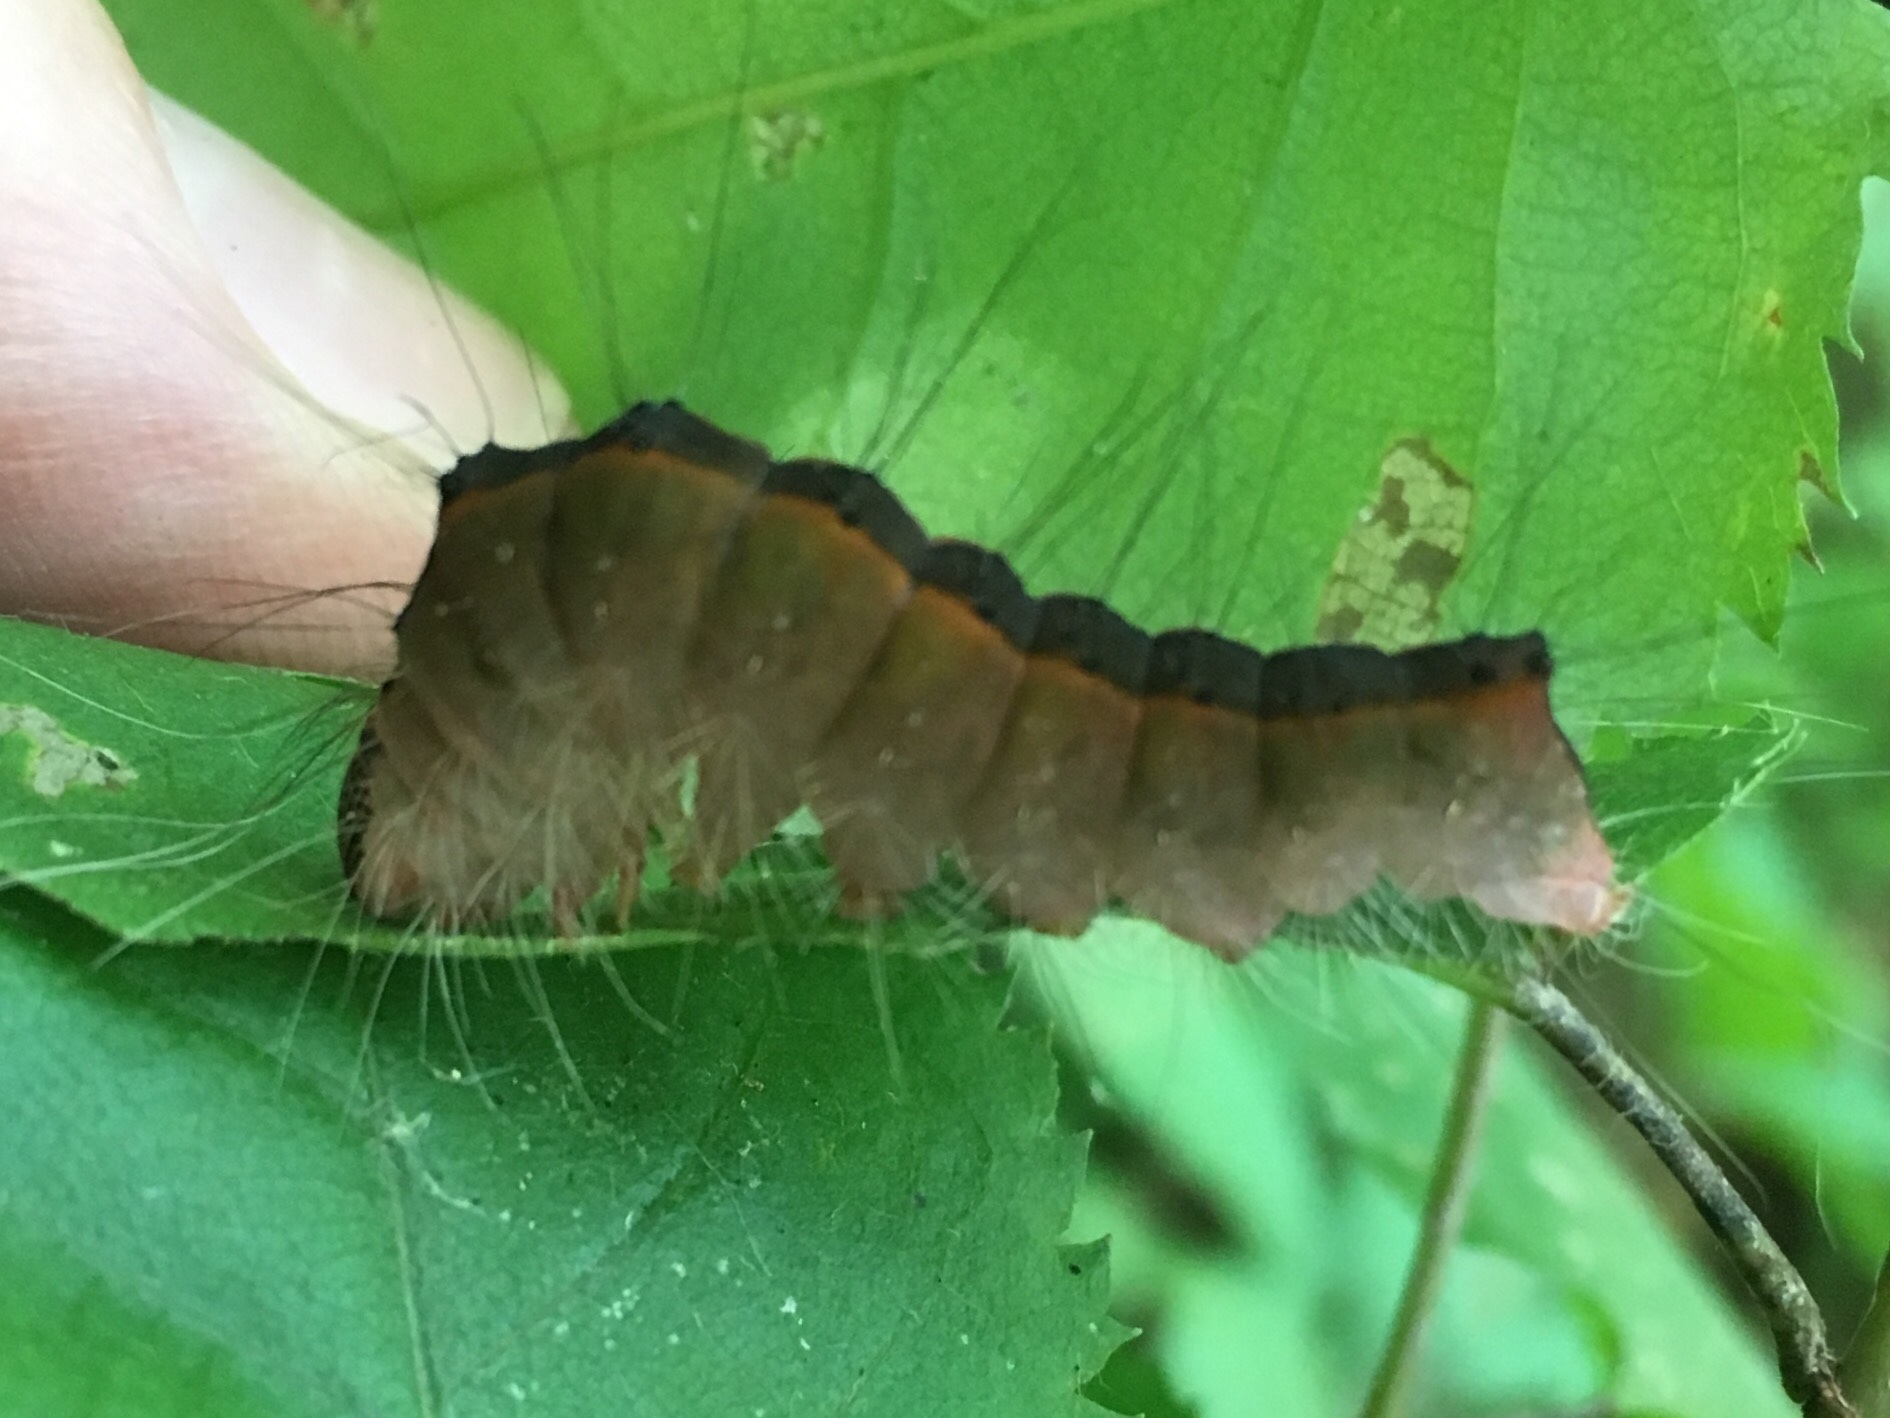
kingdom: Animalia
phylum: Arthropoda
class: Insecta
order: Lepidoptera
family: Noctuidae
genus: Acronicta
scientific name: Acronicta superans
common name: Splendid dagger
